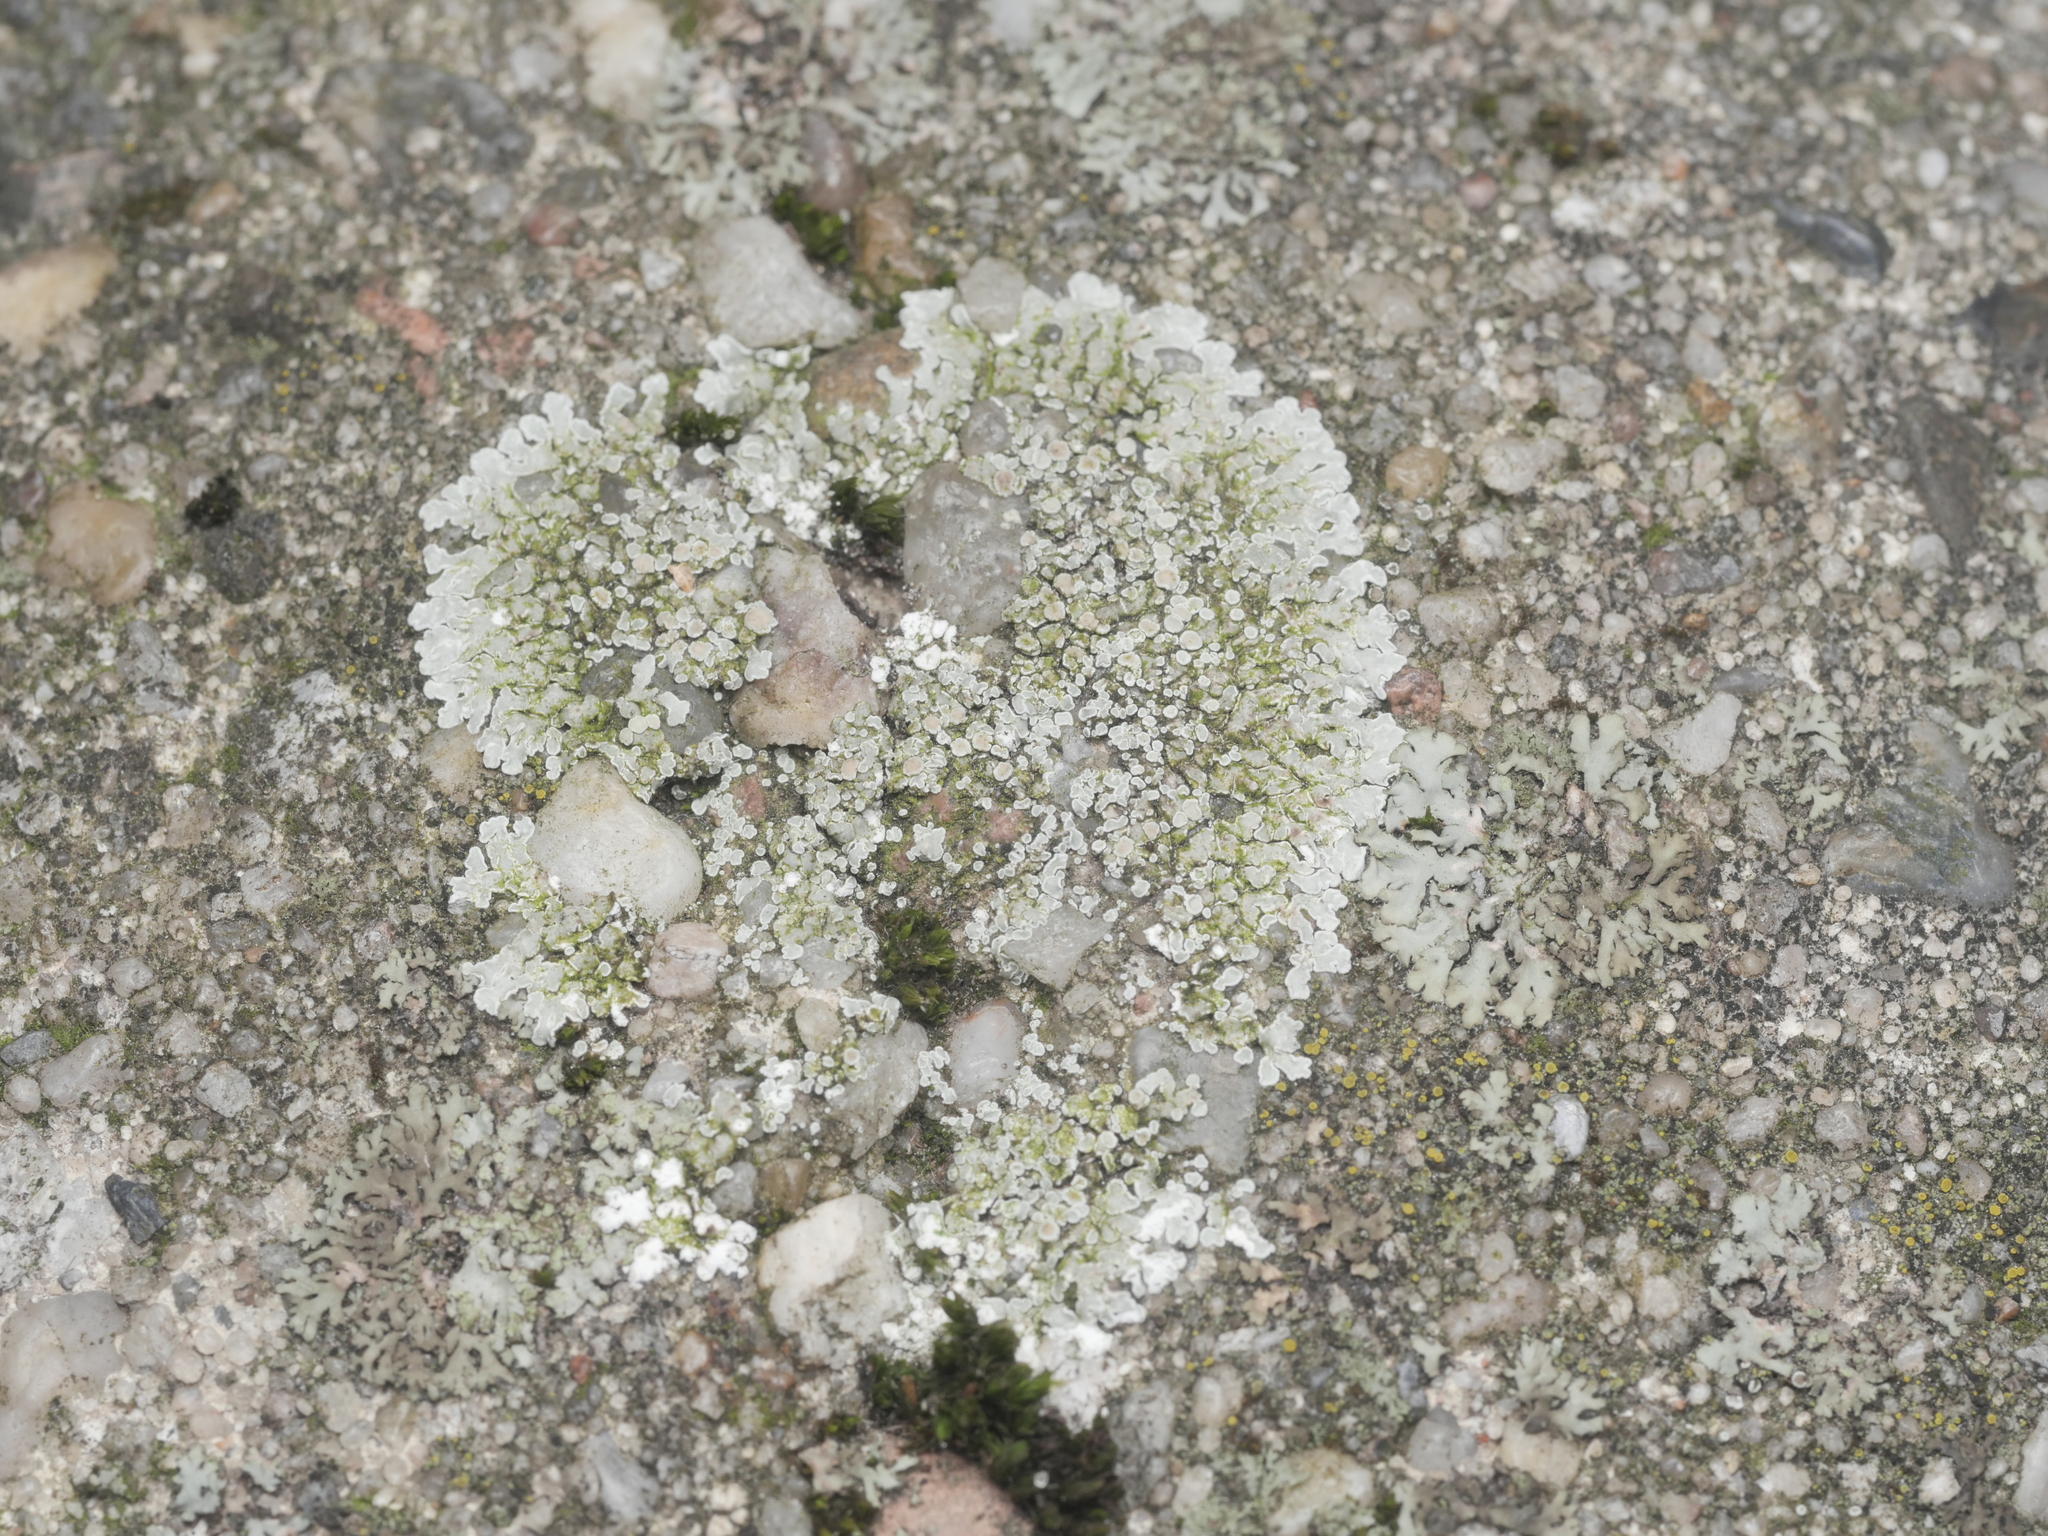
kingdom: Fungi
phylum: Ascomycota
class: Lecanoromycetes
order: Lecanorales
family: Lecanoraceae
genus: Protoparmeliopsis
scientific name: Protoparmeliopsis muralis
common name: Stonewall rim lichen
